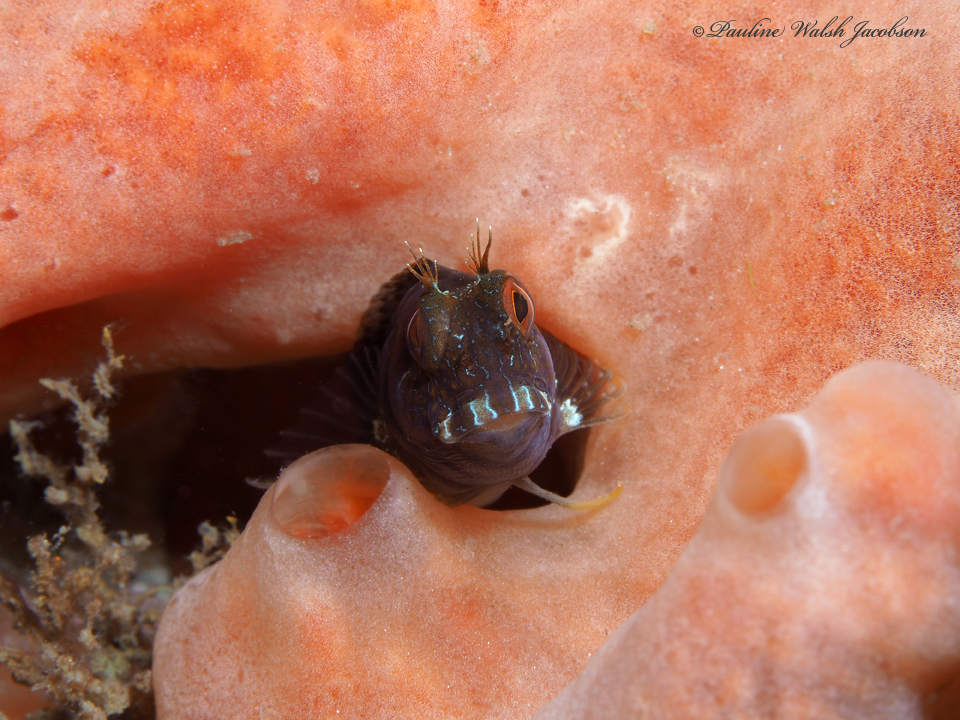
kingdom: Animalia
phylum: Chordata
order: Perciformes
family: Blenniidae
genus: Parablennius
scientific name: Parablennius marmoreus
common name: Seaweed blenny
